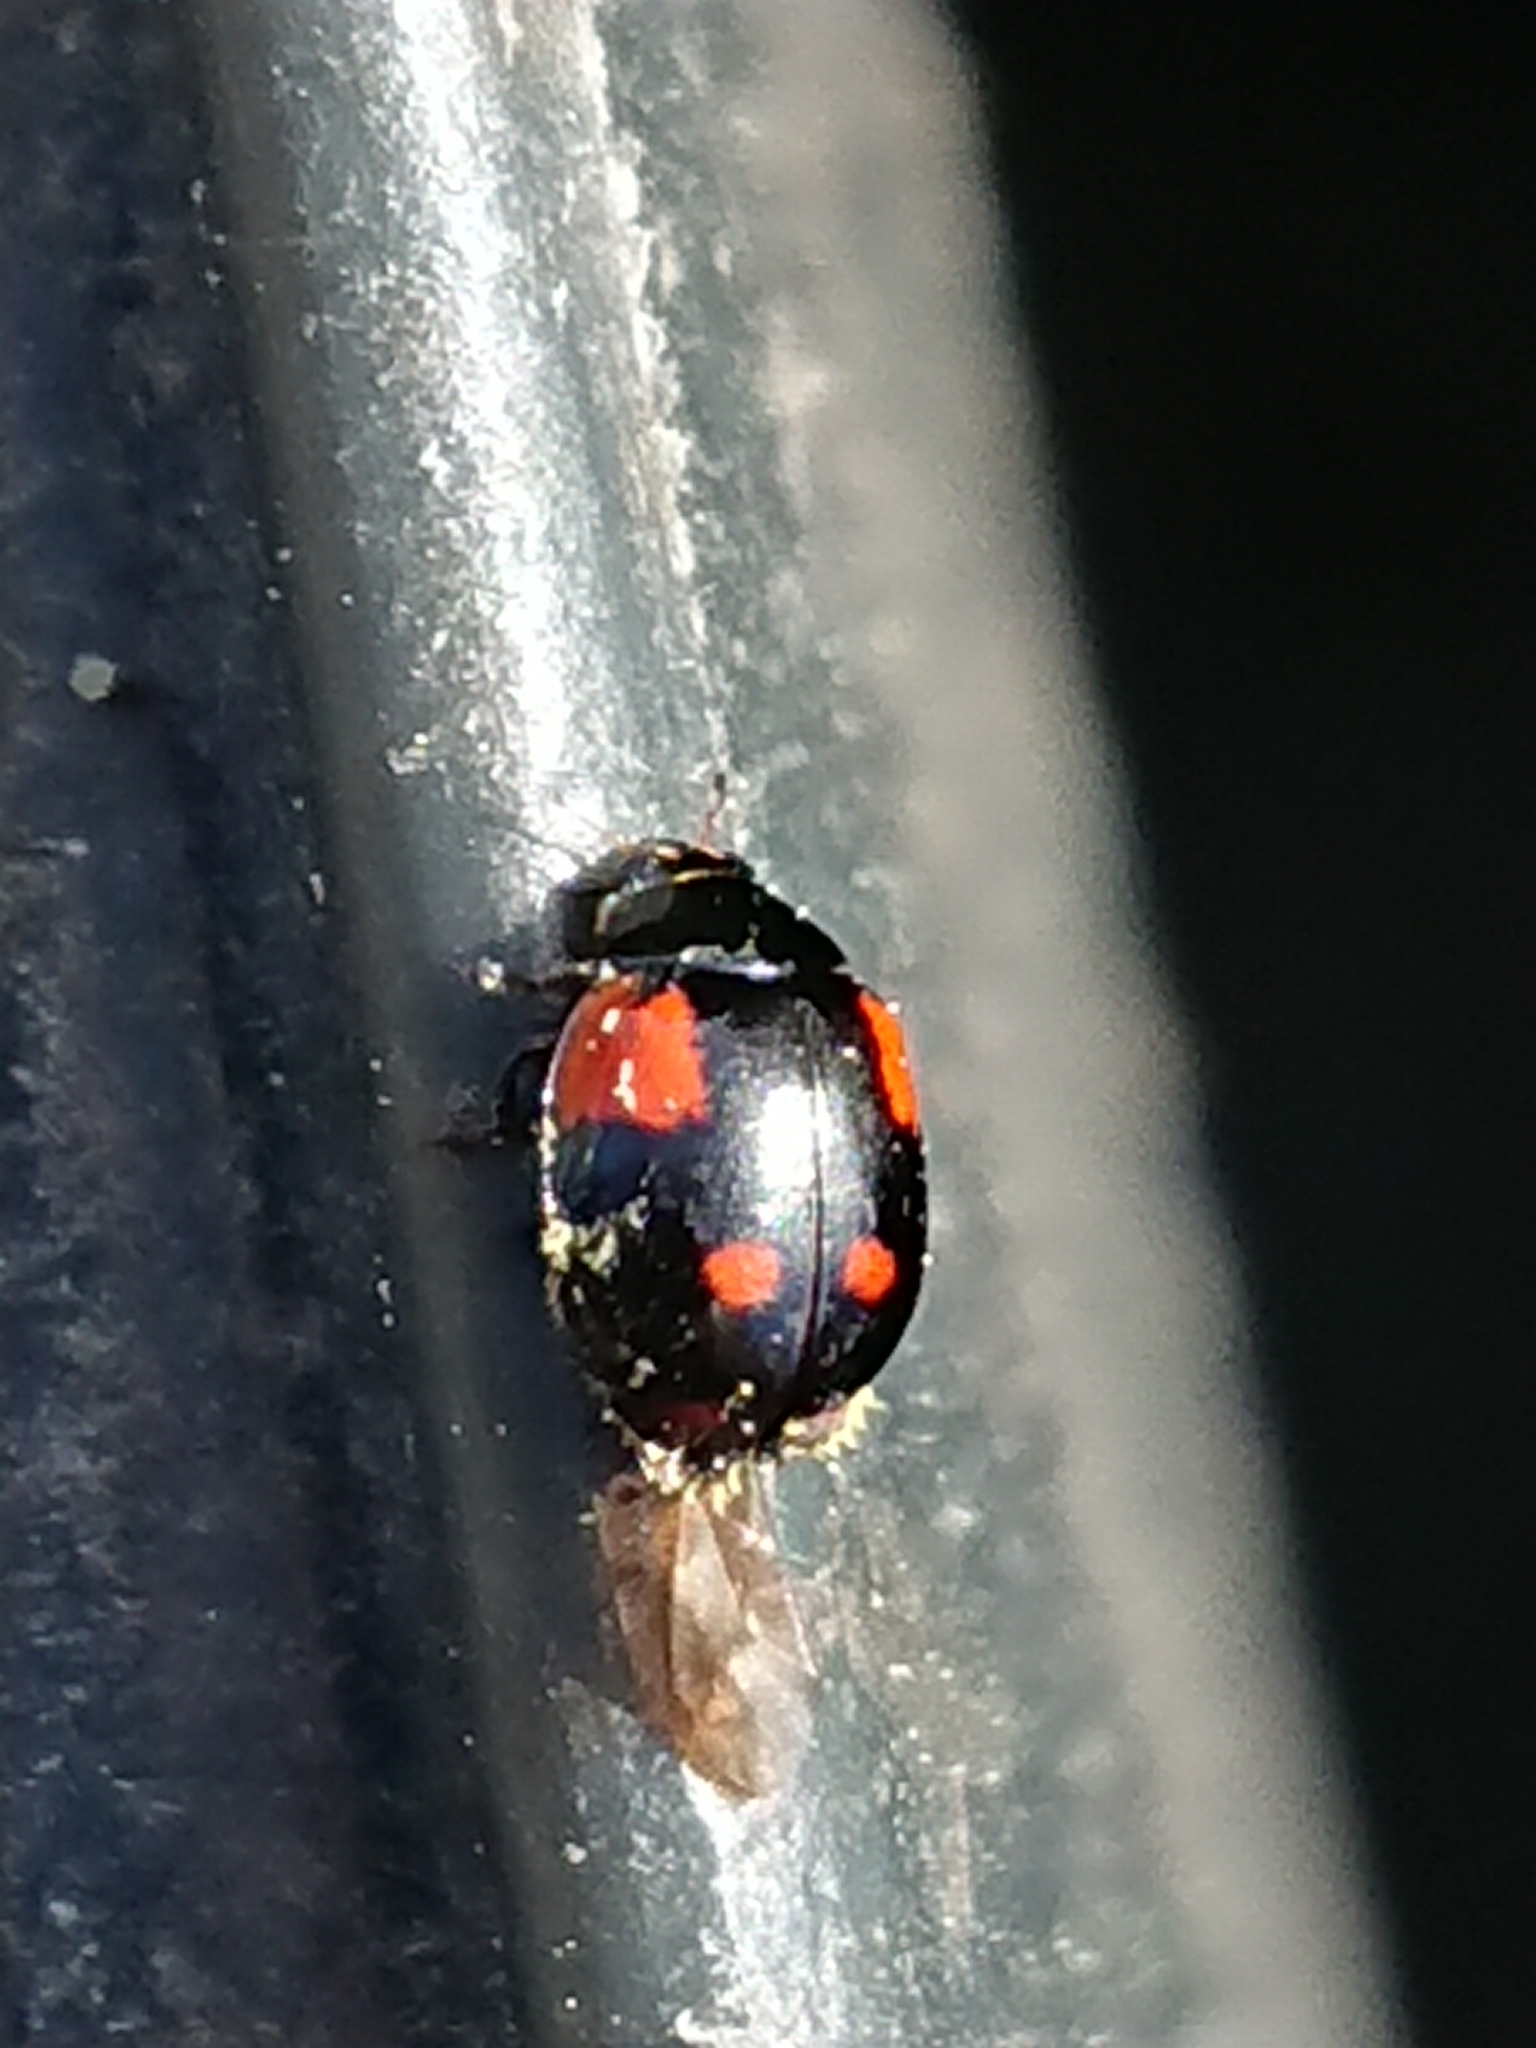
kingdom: Animalia
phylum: Arthropoda
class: Insecta
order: Coleoptera
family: Coccinellidae
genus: Adalia
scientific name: Adalia bipunctata
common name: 2-spot ladybird
